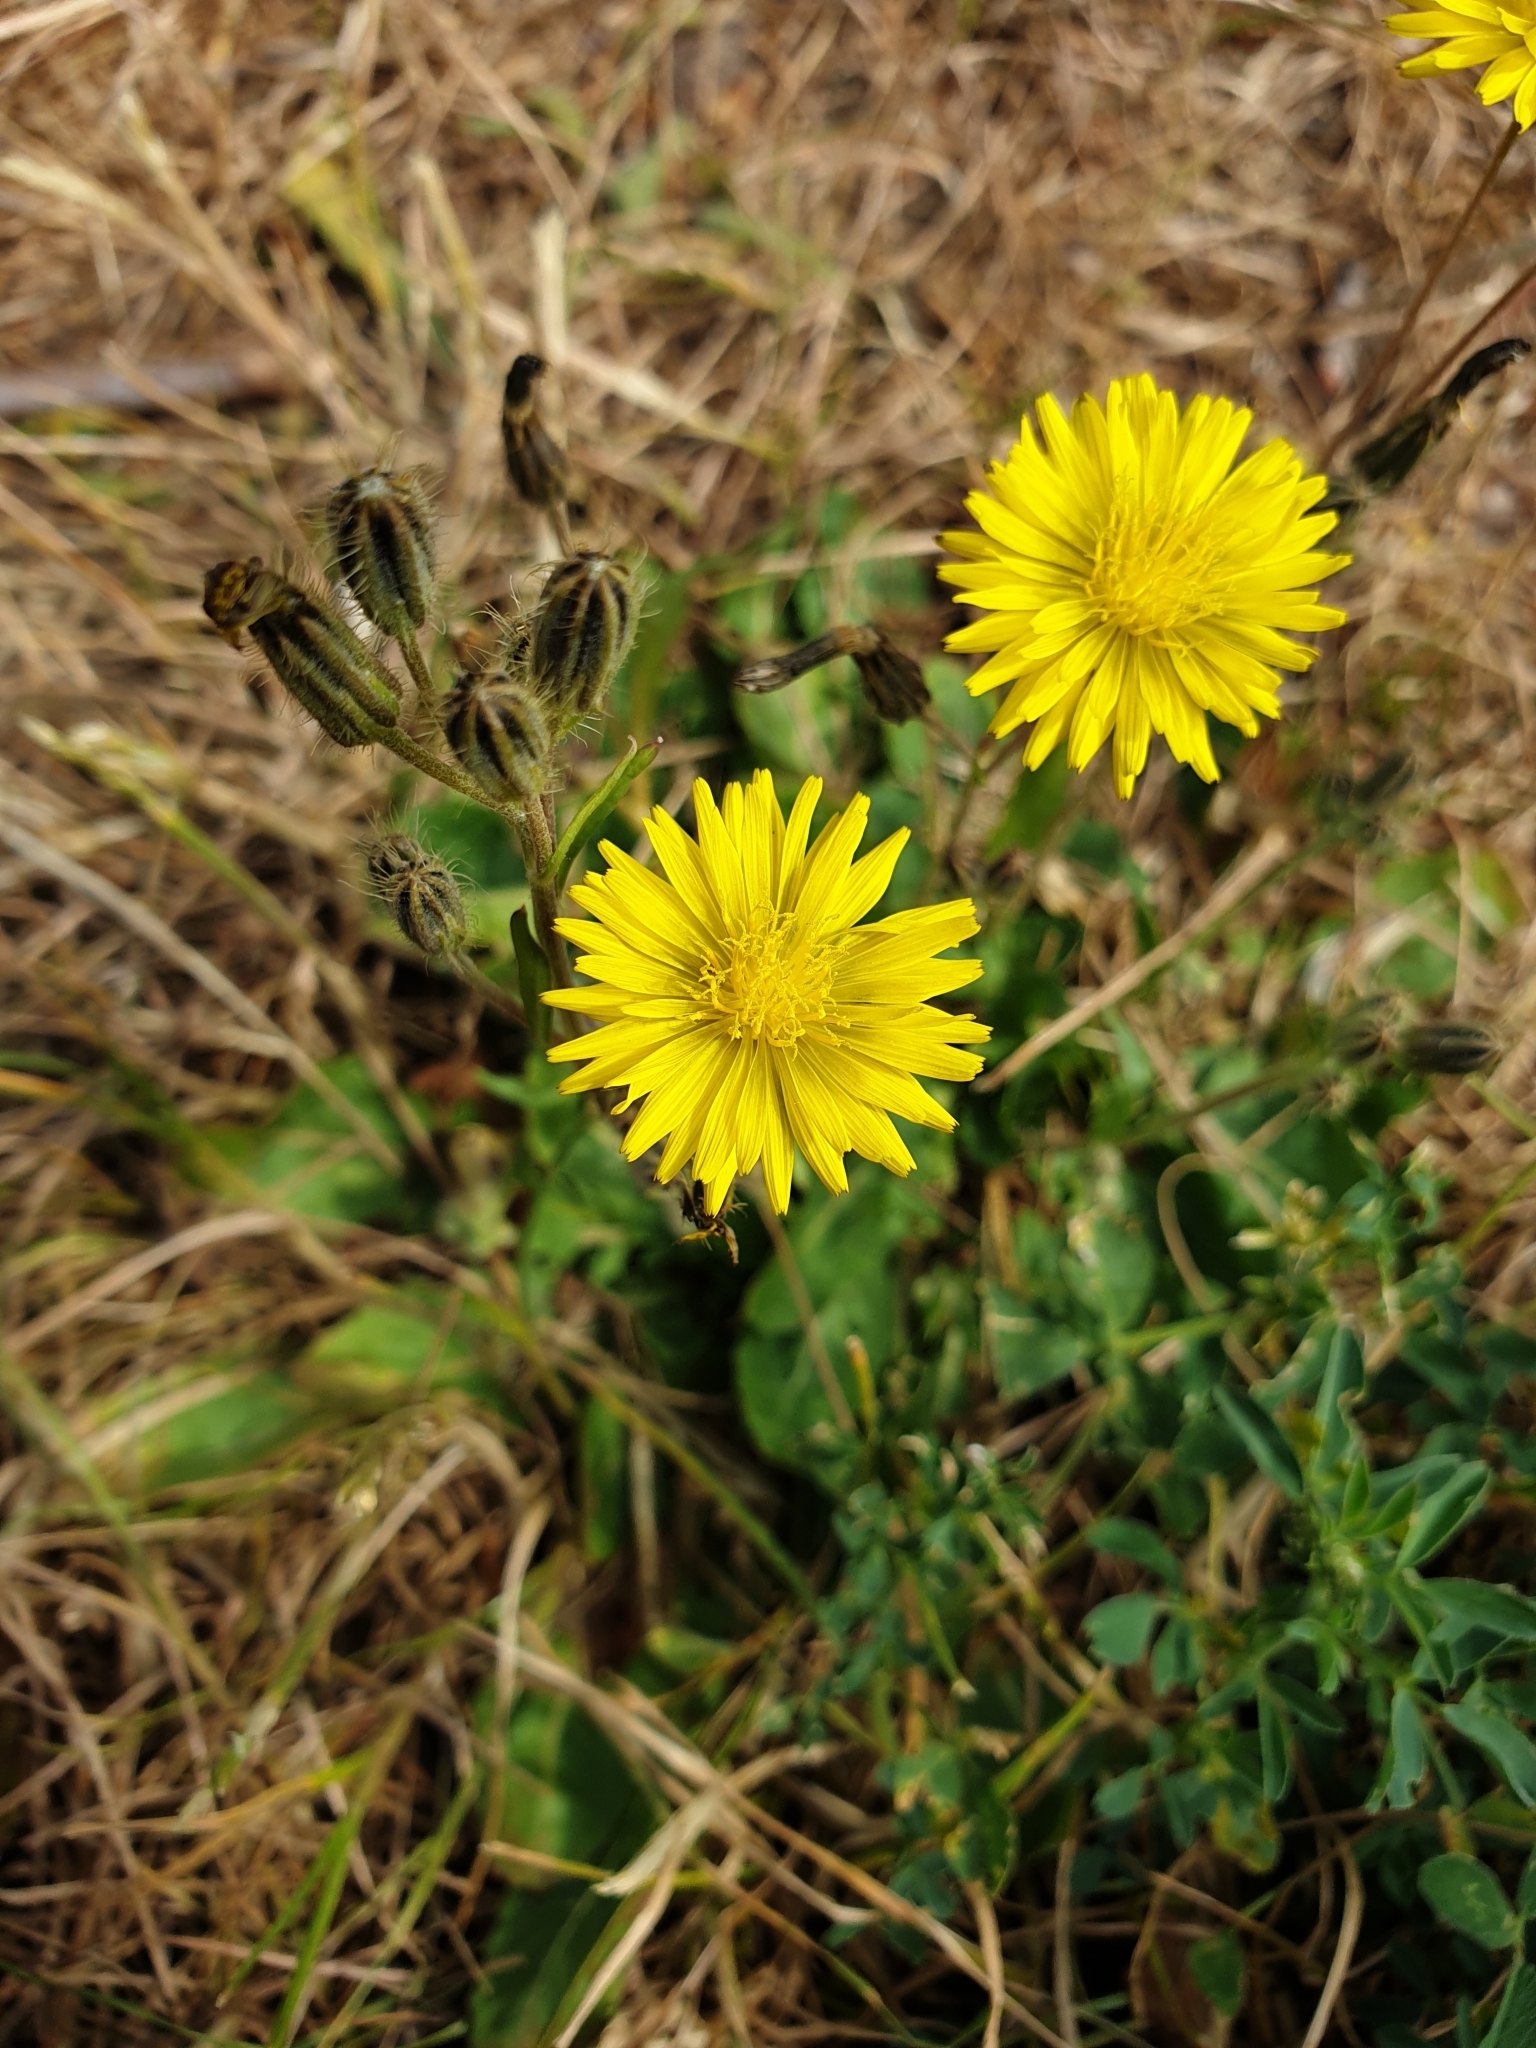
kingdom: Plantae
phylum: Tracheophyta
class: Magnoliopsida
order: Asterales
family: Asteraceae
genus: Crepis
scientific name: Crepis bursifolia
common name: Italian hawksbeard
